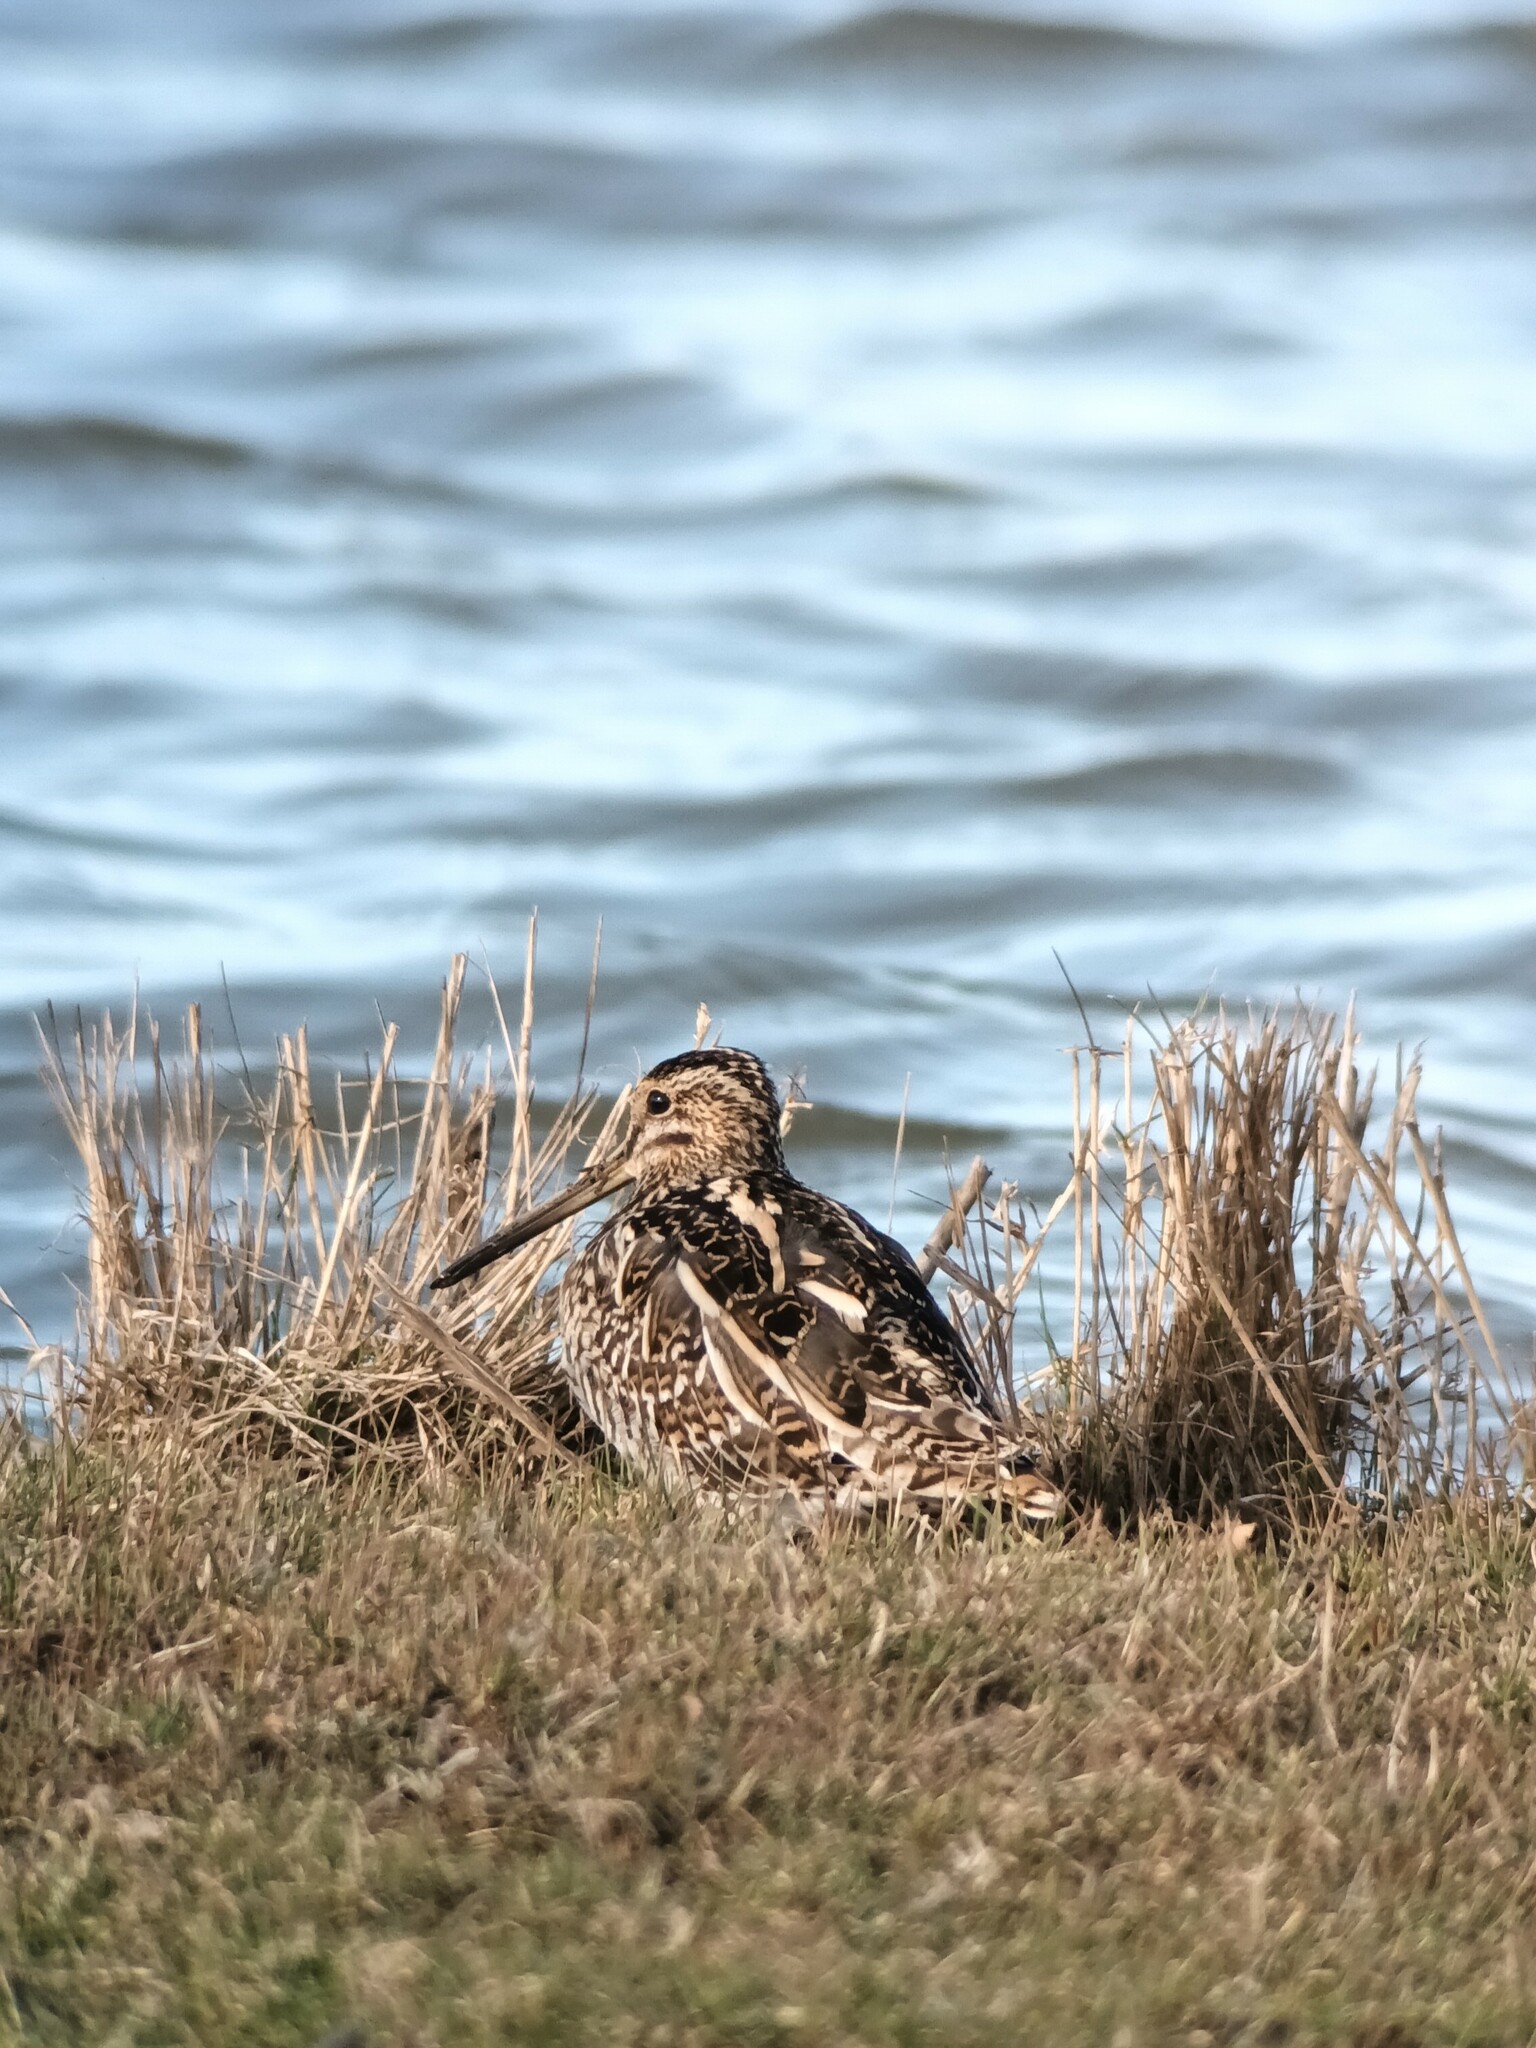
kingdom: Animalia
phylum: Chordata
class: Aves
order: Charadriiformes
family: Scolopacidae
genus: Gallinago
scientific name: Gallinago gallinago
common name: Common snipe
